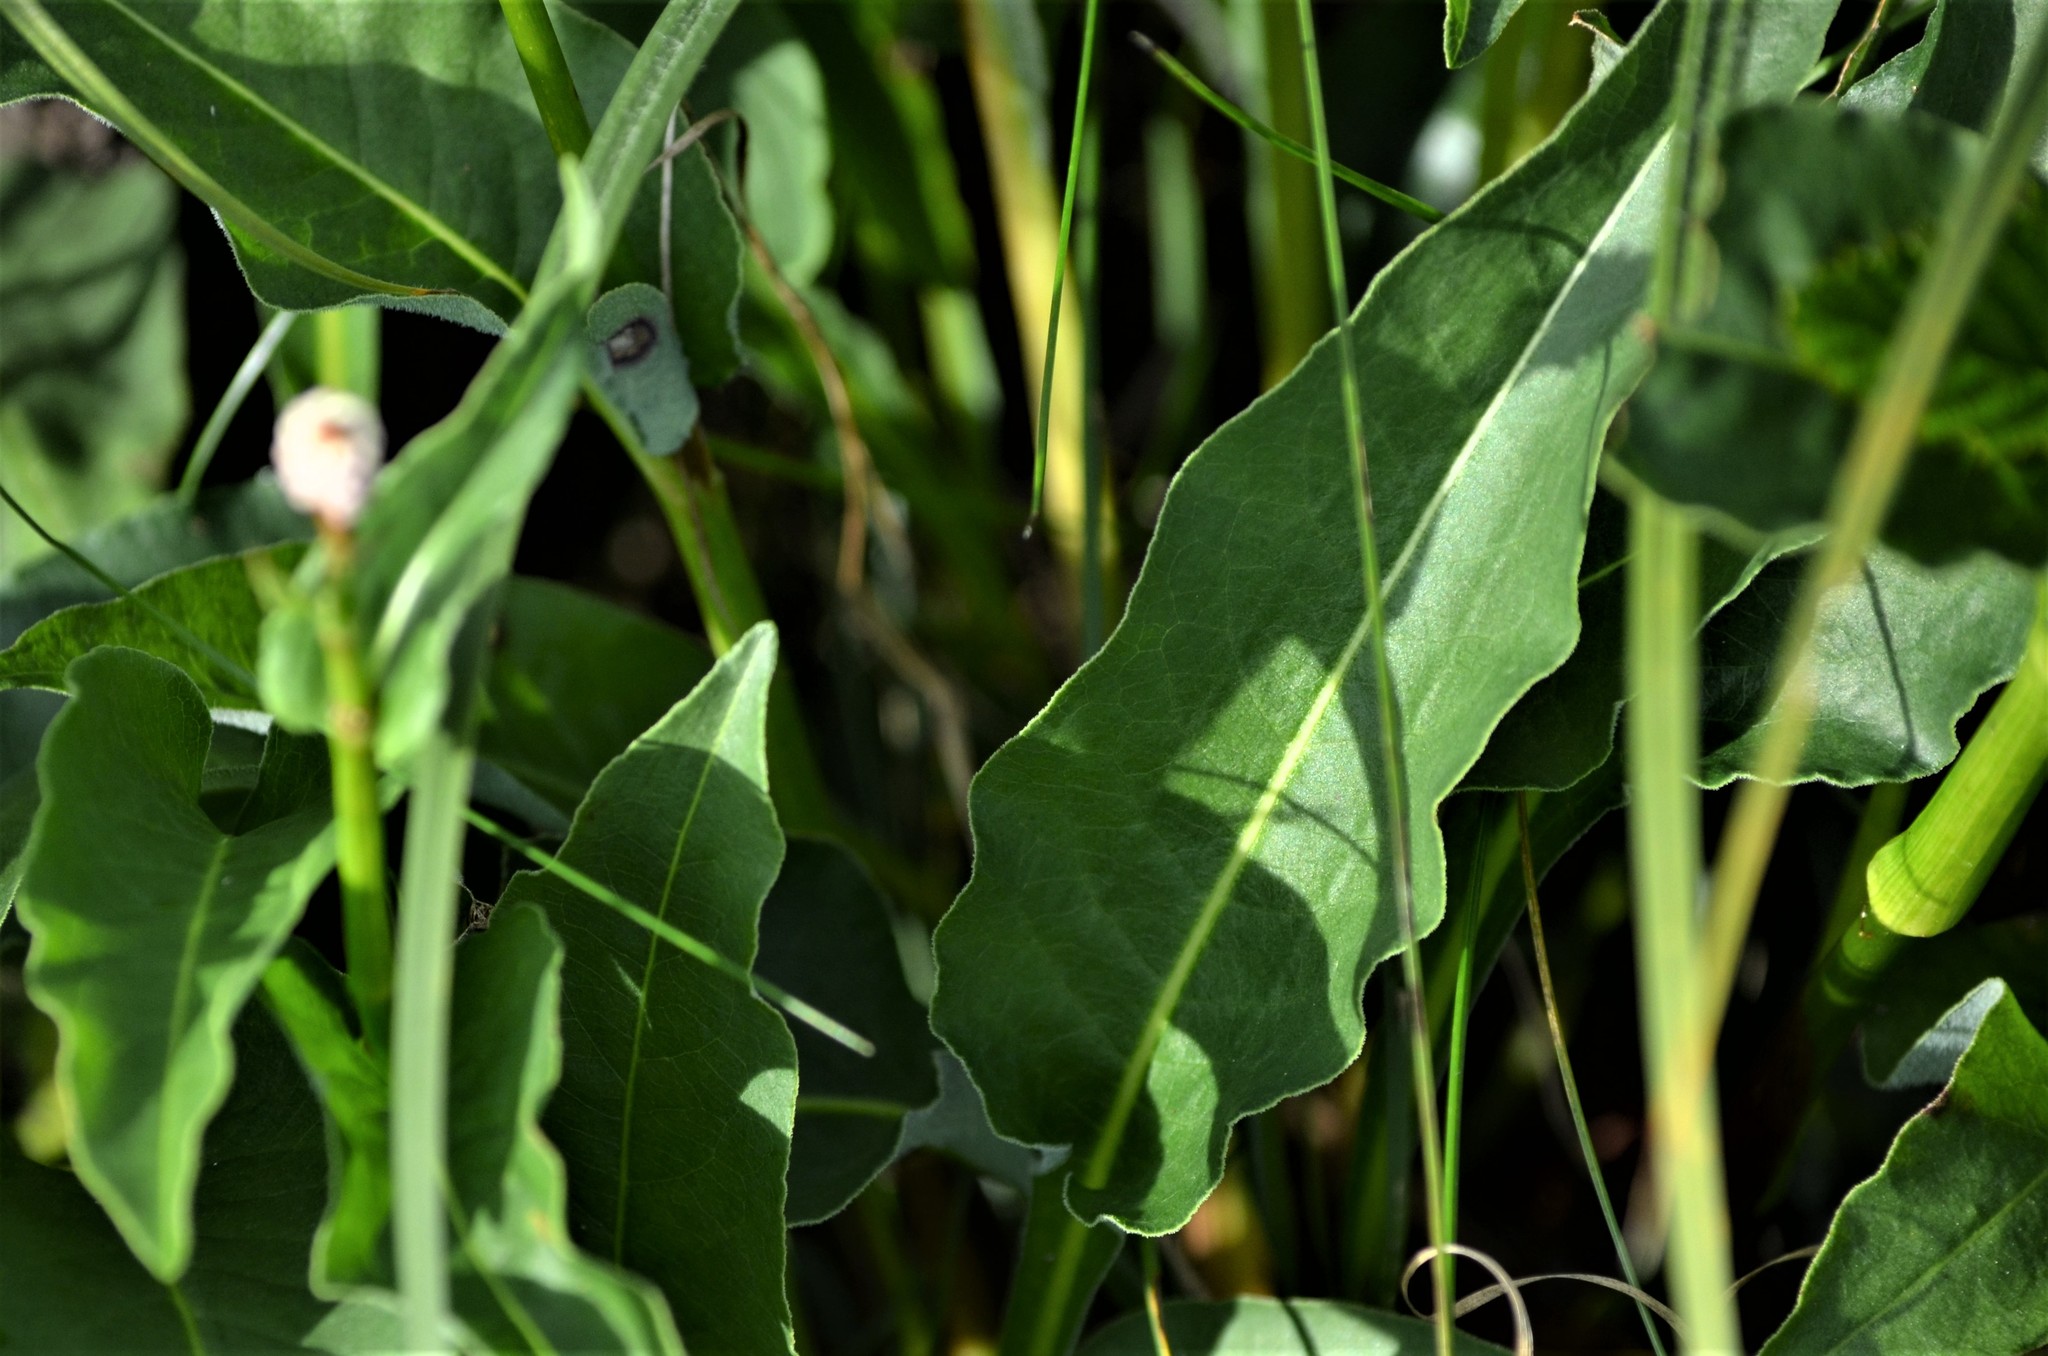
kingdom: Plantae
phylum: Tracheophyta
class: Magnoliopsida
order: Caryophyllales
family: Polygonaceae
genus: Bistorta
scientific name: Bistorta officinalis
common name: Common bistort
